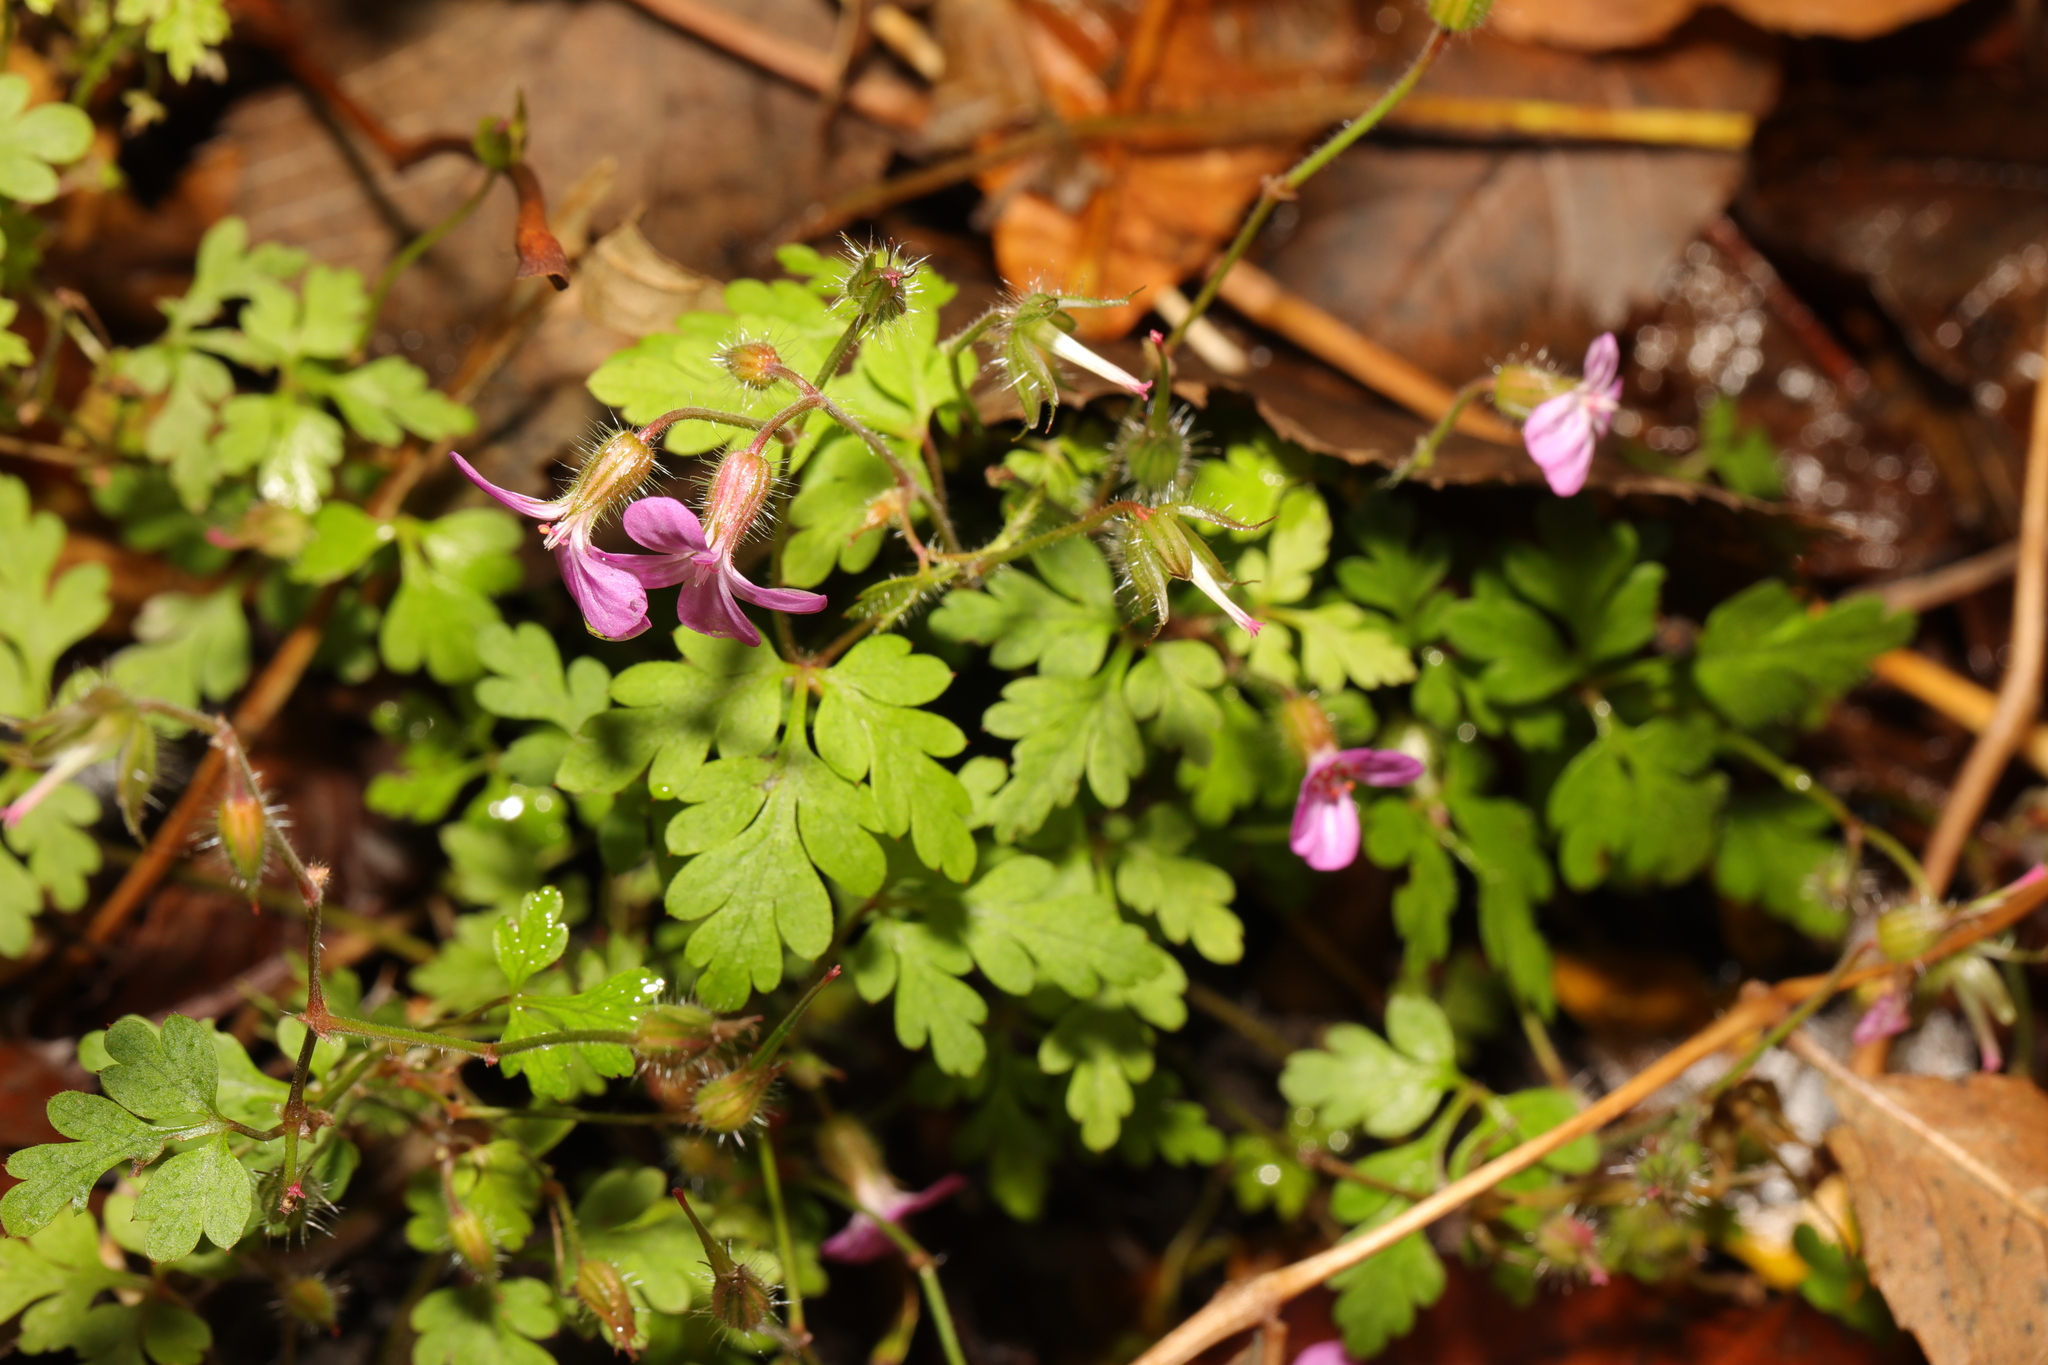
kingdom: Plantae
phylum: Tracheophyta
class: Magnoliopsida
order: Geraniales
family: Geraniaceae
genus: Geranium
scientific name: Geranium robertianum
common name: Herb-robert
